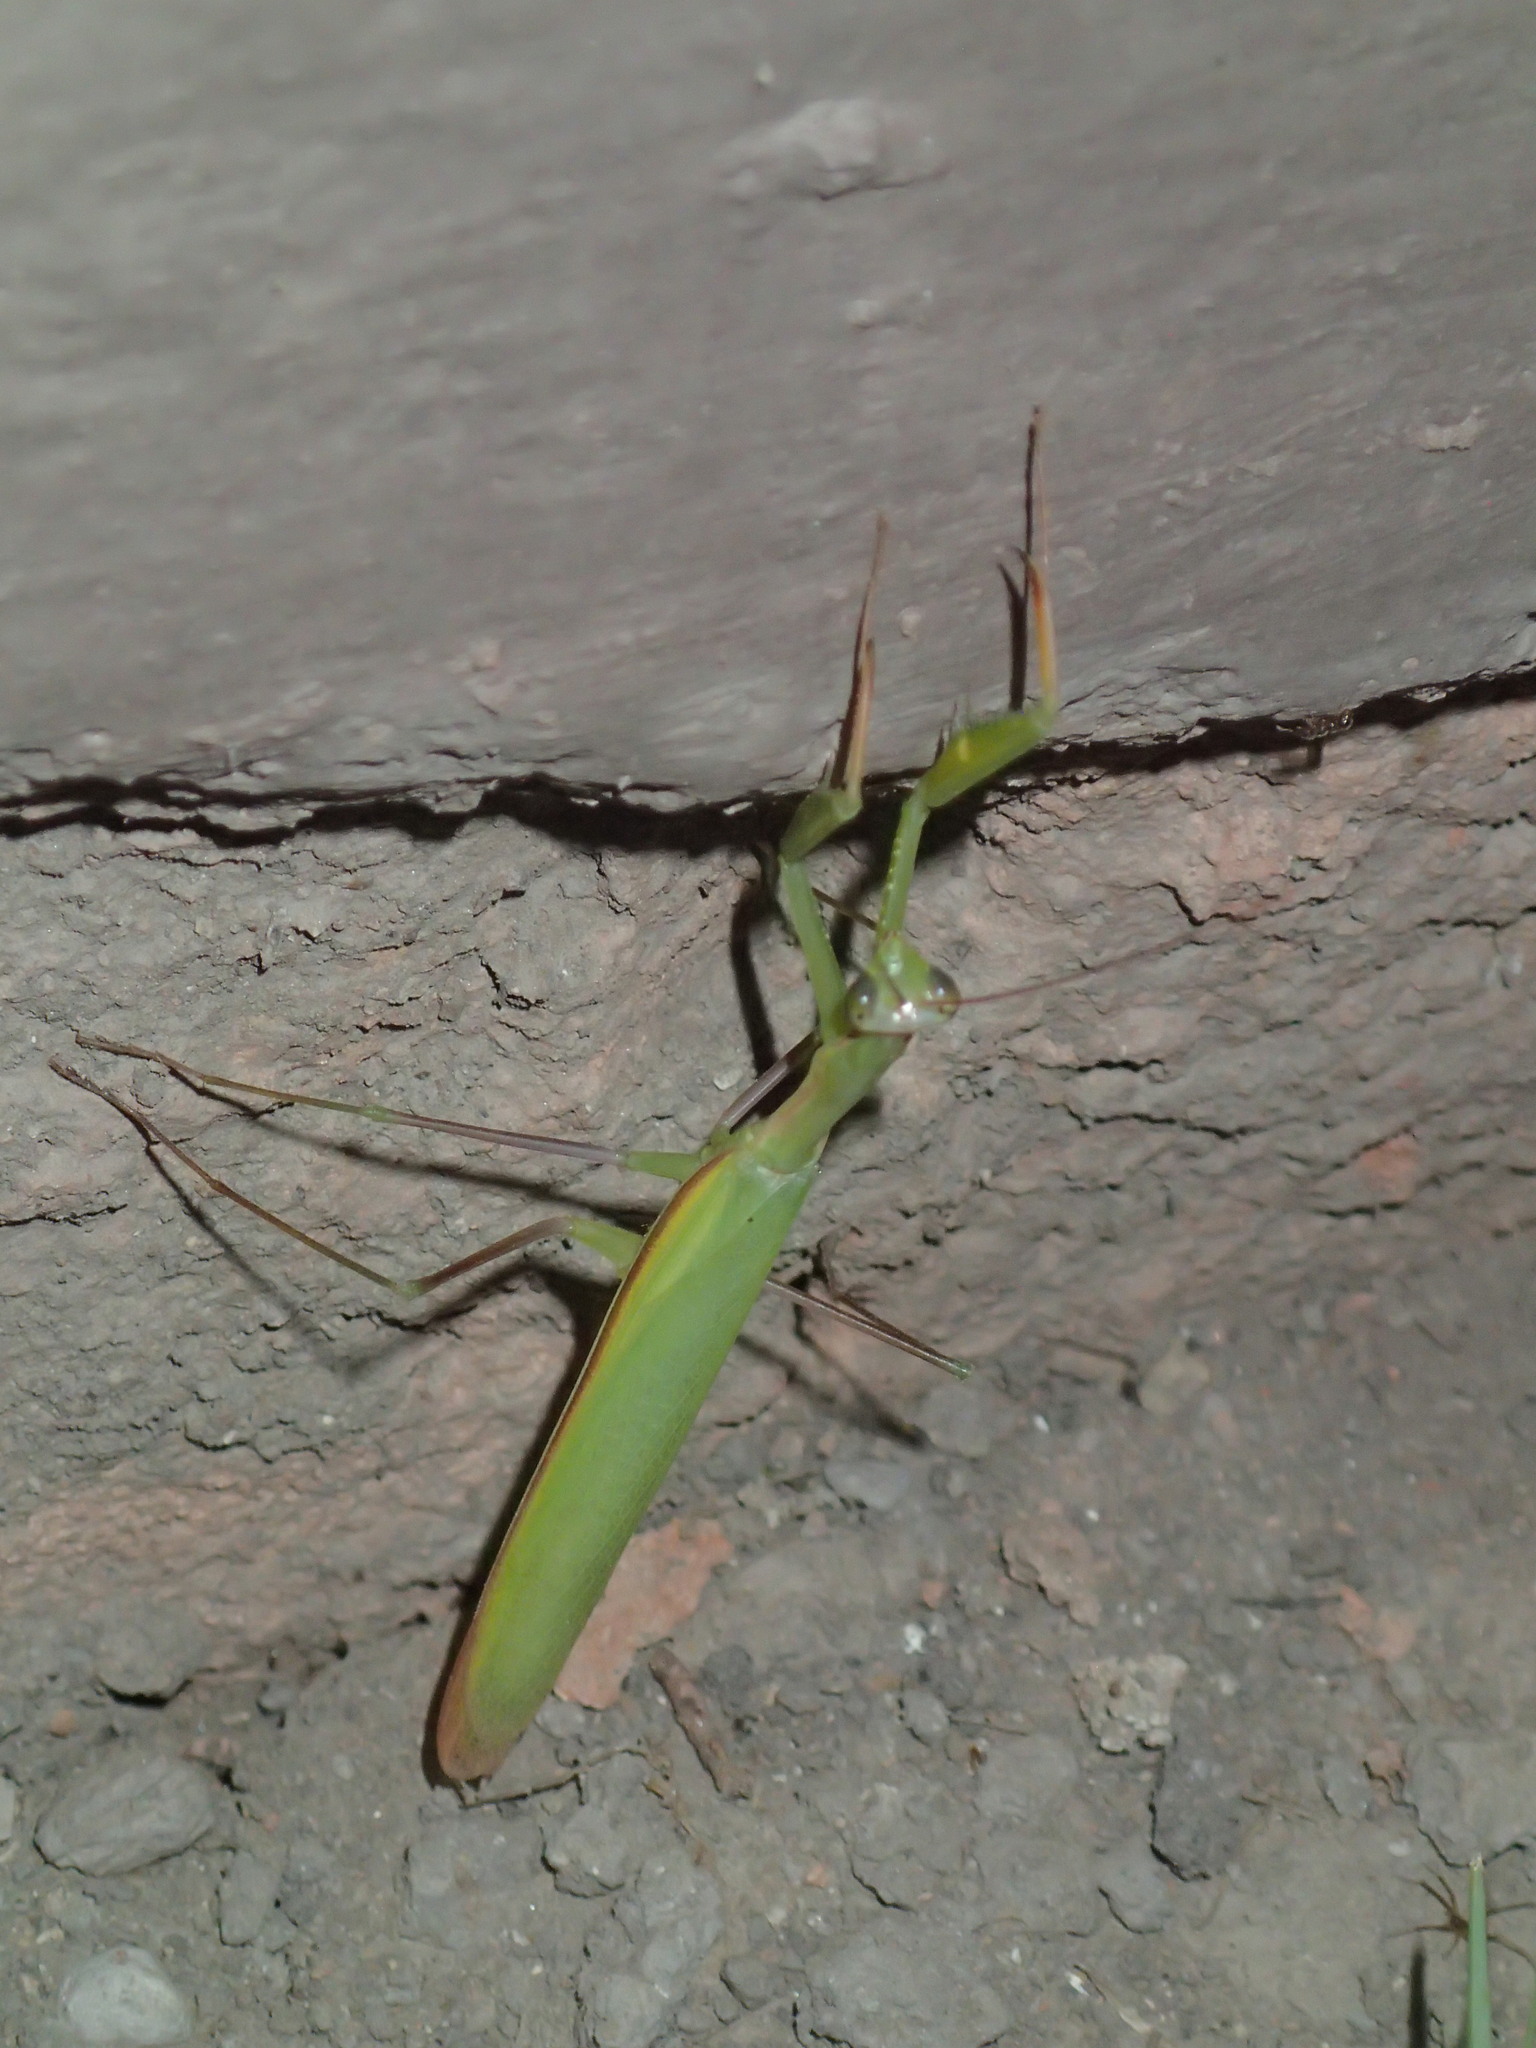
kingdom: Animalia
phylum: Arthropoda
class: Insecta
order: Mantodea
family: Mantidae
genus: Mantis
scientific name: Mantis religiosa
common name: Praying mantis
